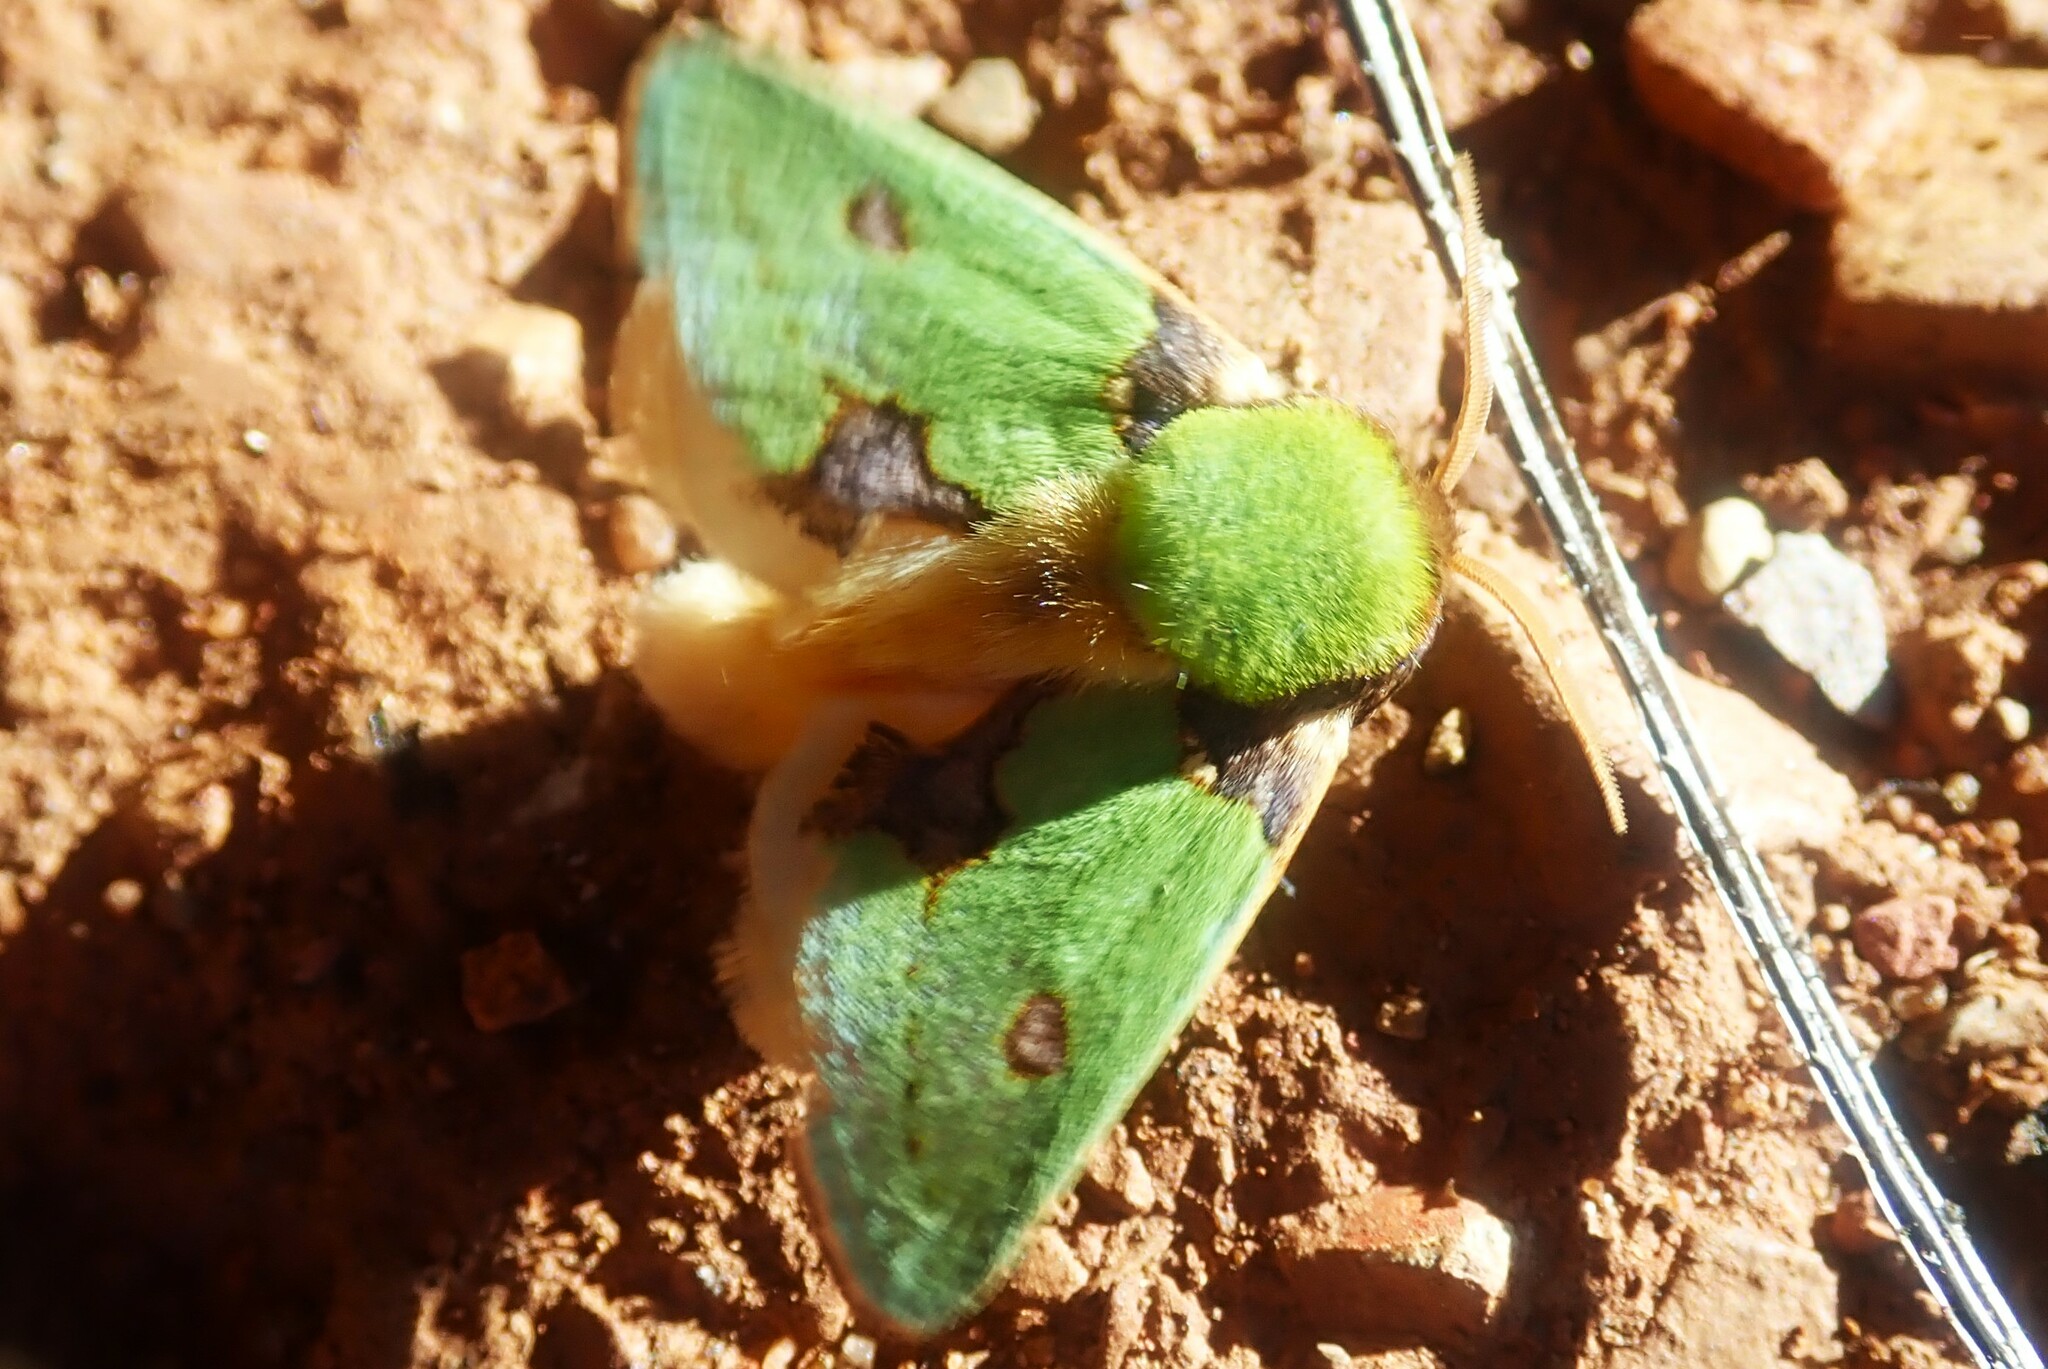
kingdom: Animalia
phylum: Arthropoda
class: Insecta
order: Lepidoptera
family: Limacodidae
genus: Parasa
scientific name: Parasa gemmans
